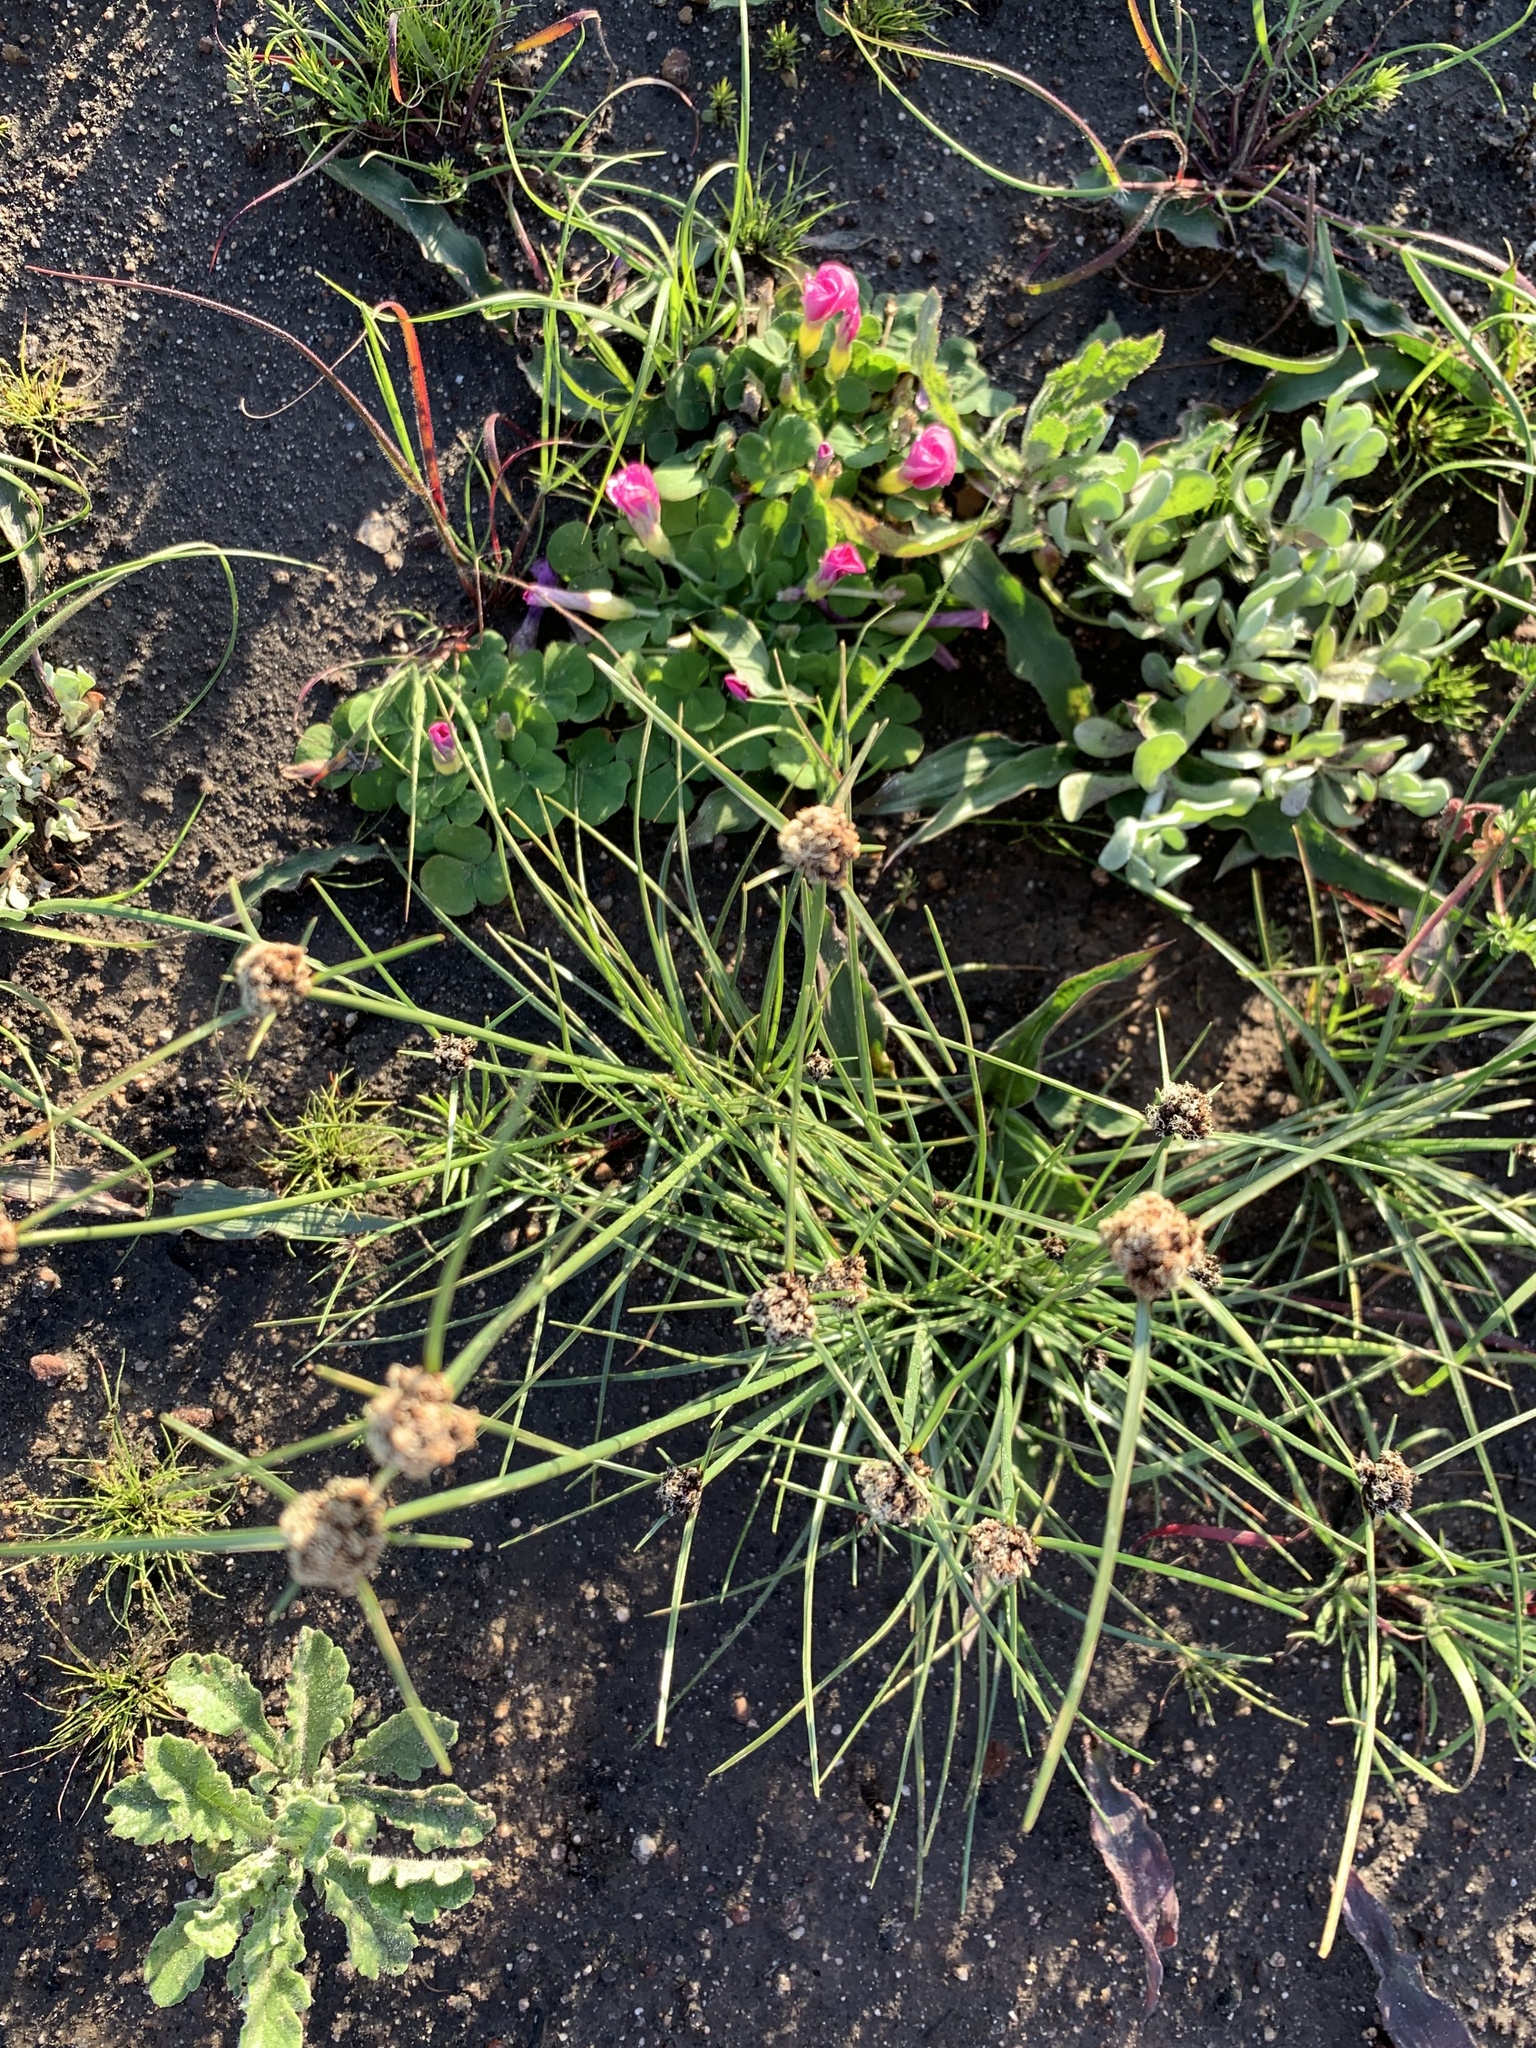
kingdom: Plantae
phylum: Tracheophyta
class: Liliopsida
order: Poales
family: Cyperaceae
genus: Ficinia
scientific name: Ficinia indica
